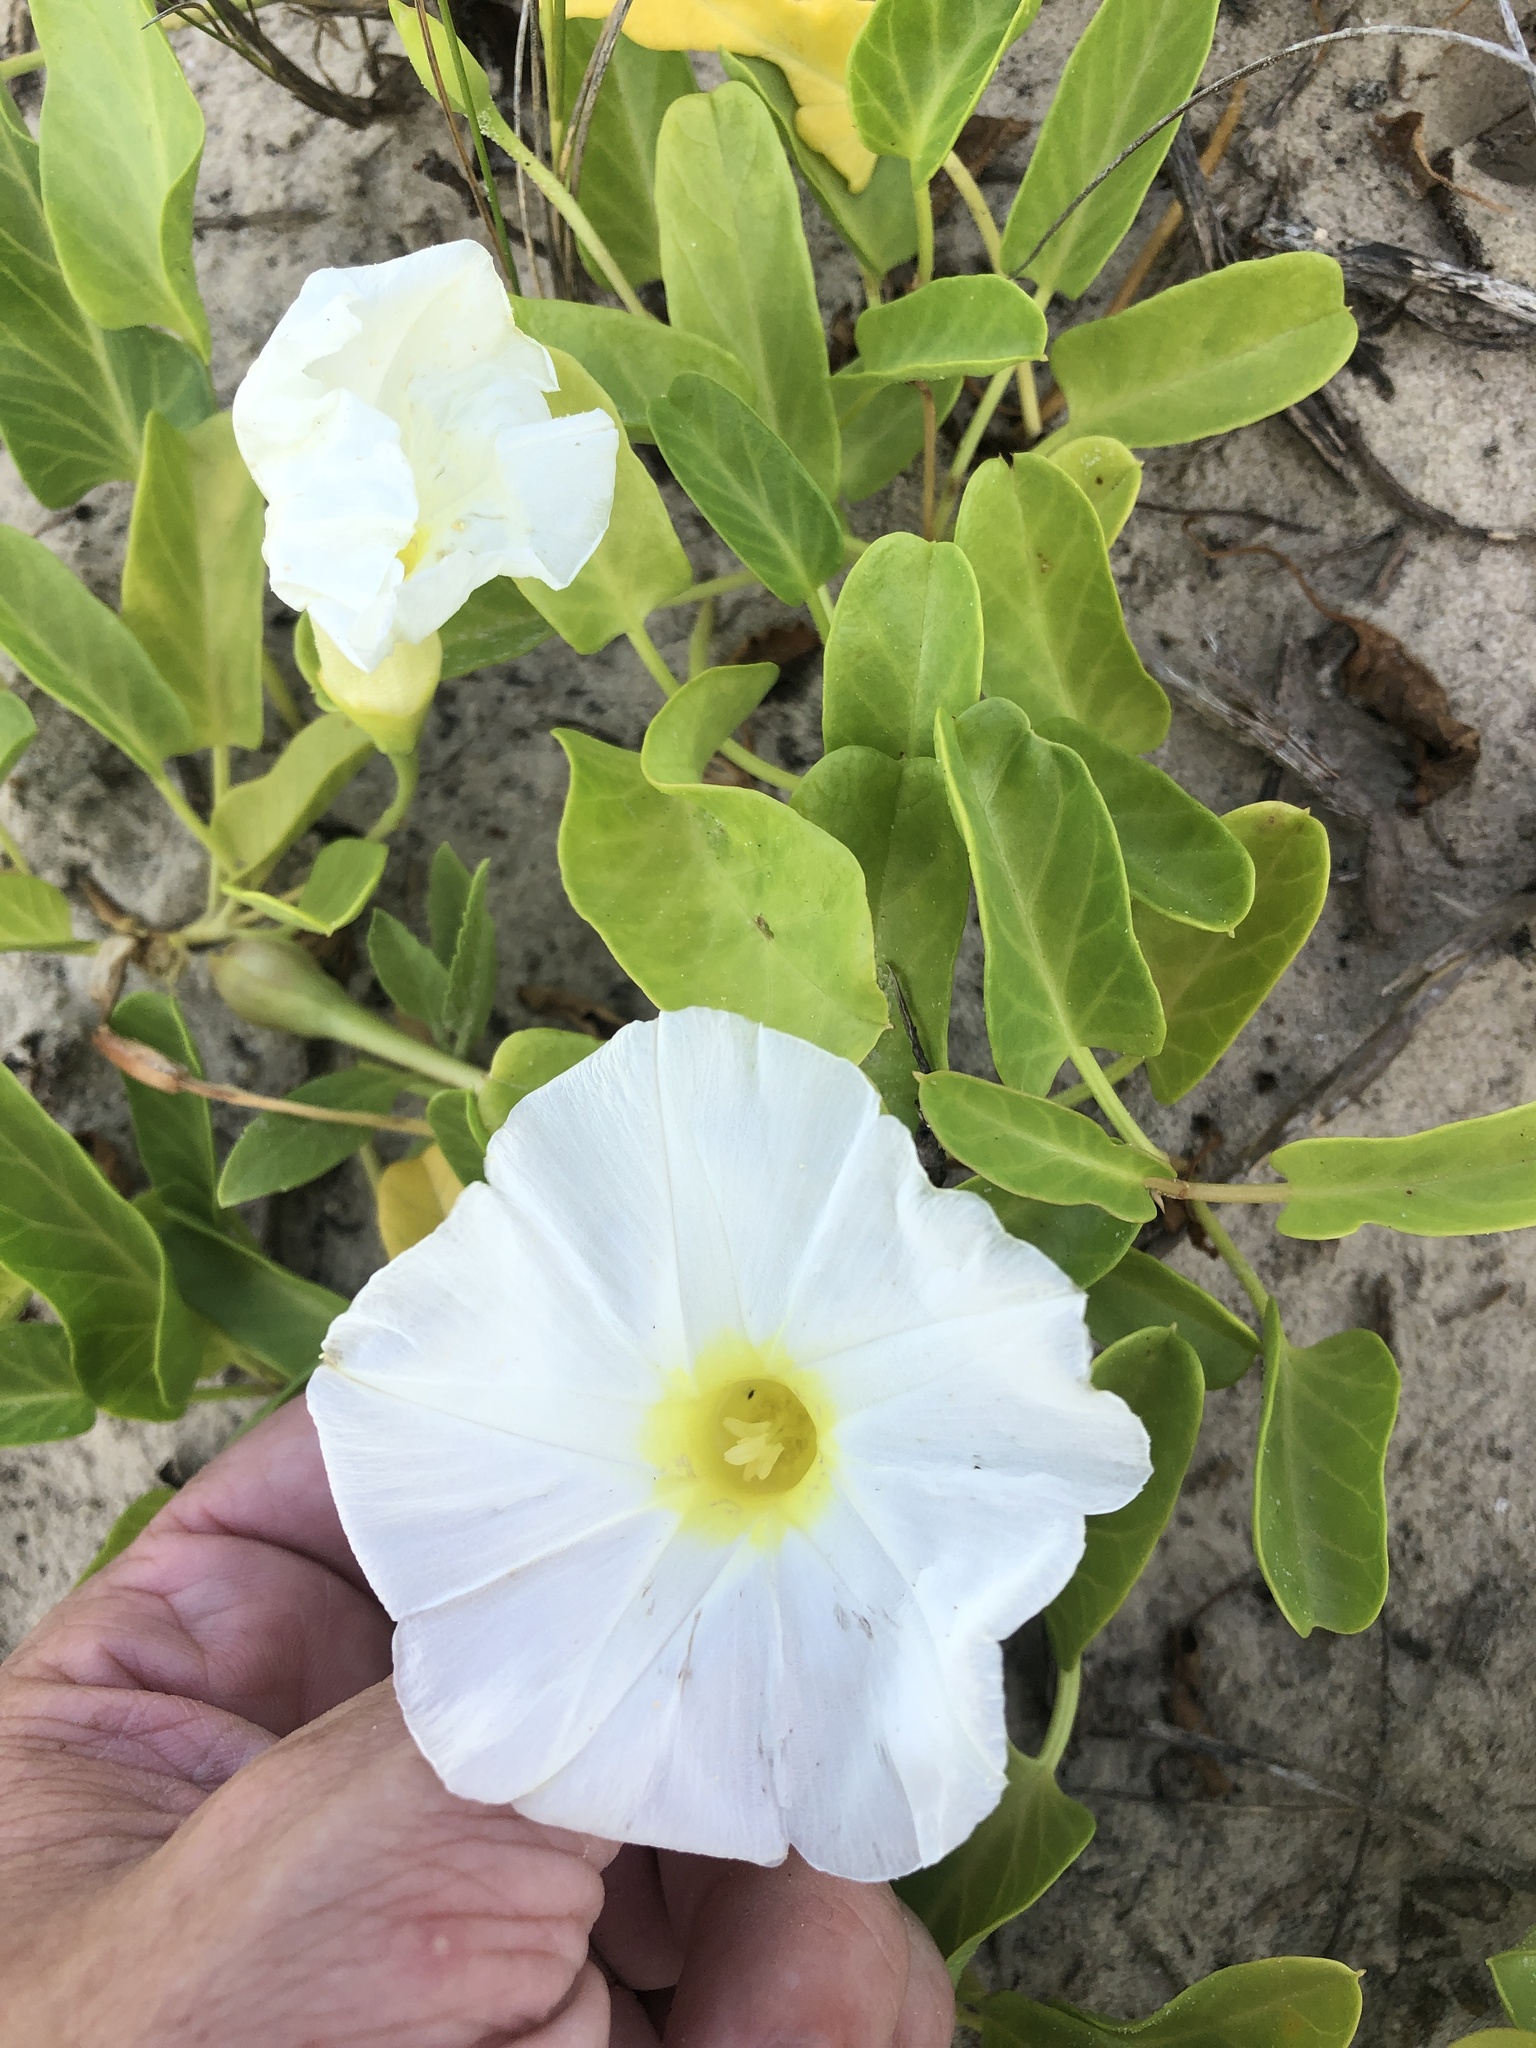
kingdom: Plantae
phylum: Tracheophyta
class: Magnoliopsida
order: Solanales
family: Convolvulaceae
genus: Ipomoea
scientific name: Ipomoea imperati
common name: Fiddle-leaf morning-glory
